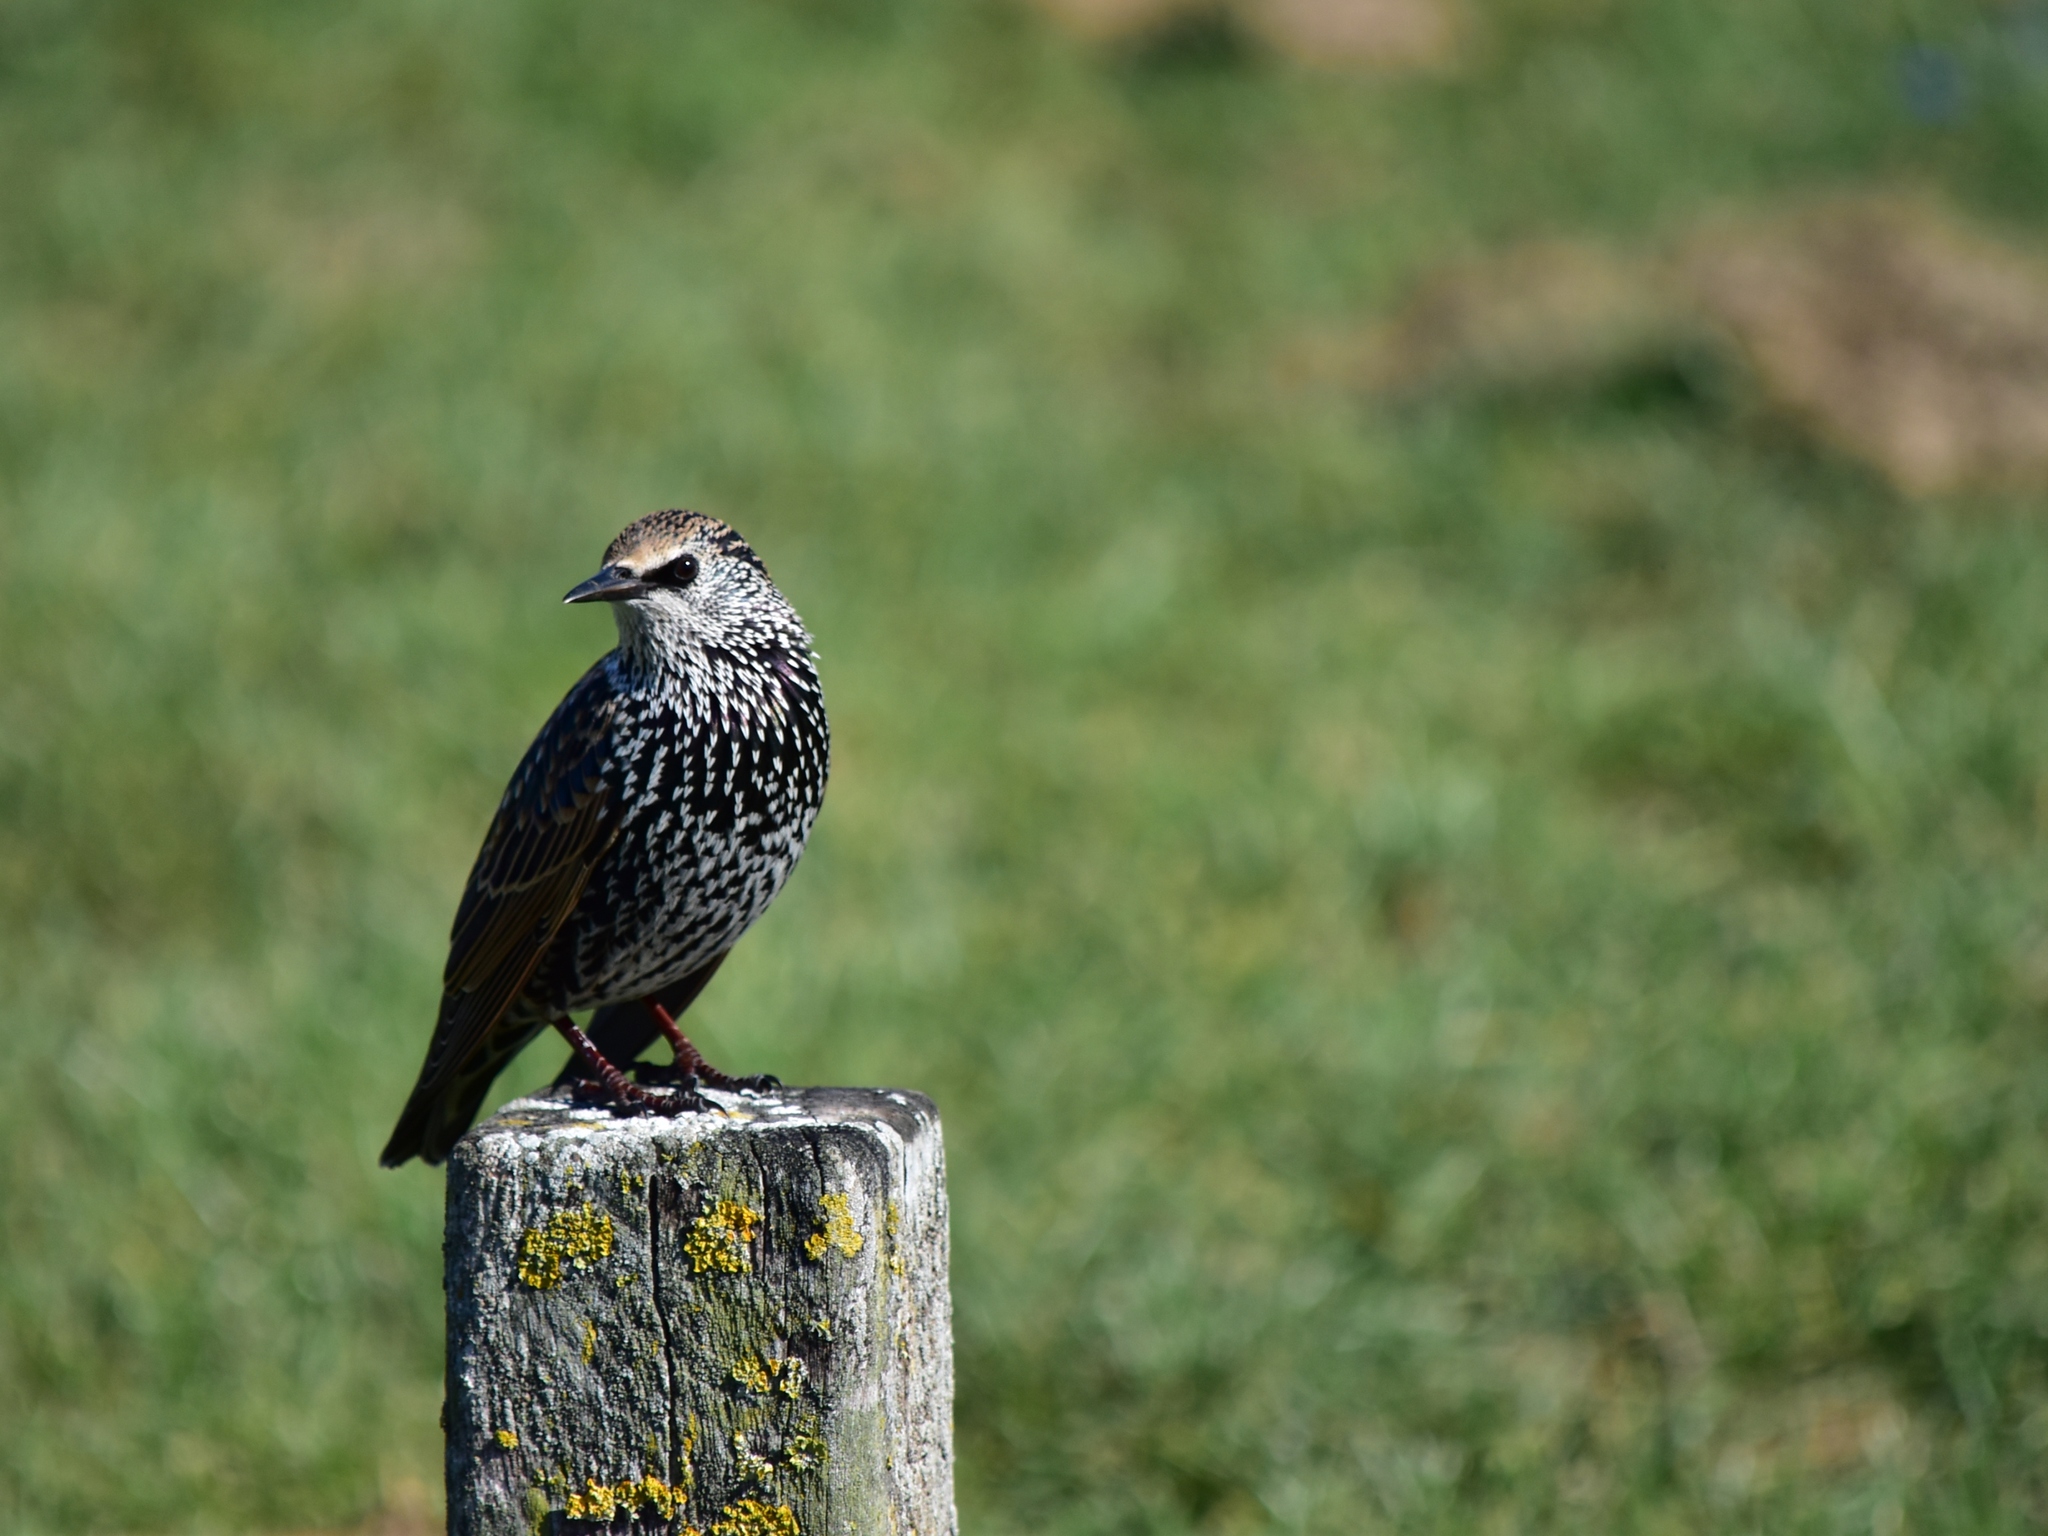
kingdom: Animalia
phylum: Chordata
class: Aves
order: Passeriformes
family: Sturnidae
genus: Sturnus
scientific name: Sturnus vulgaris
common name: Common starling
